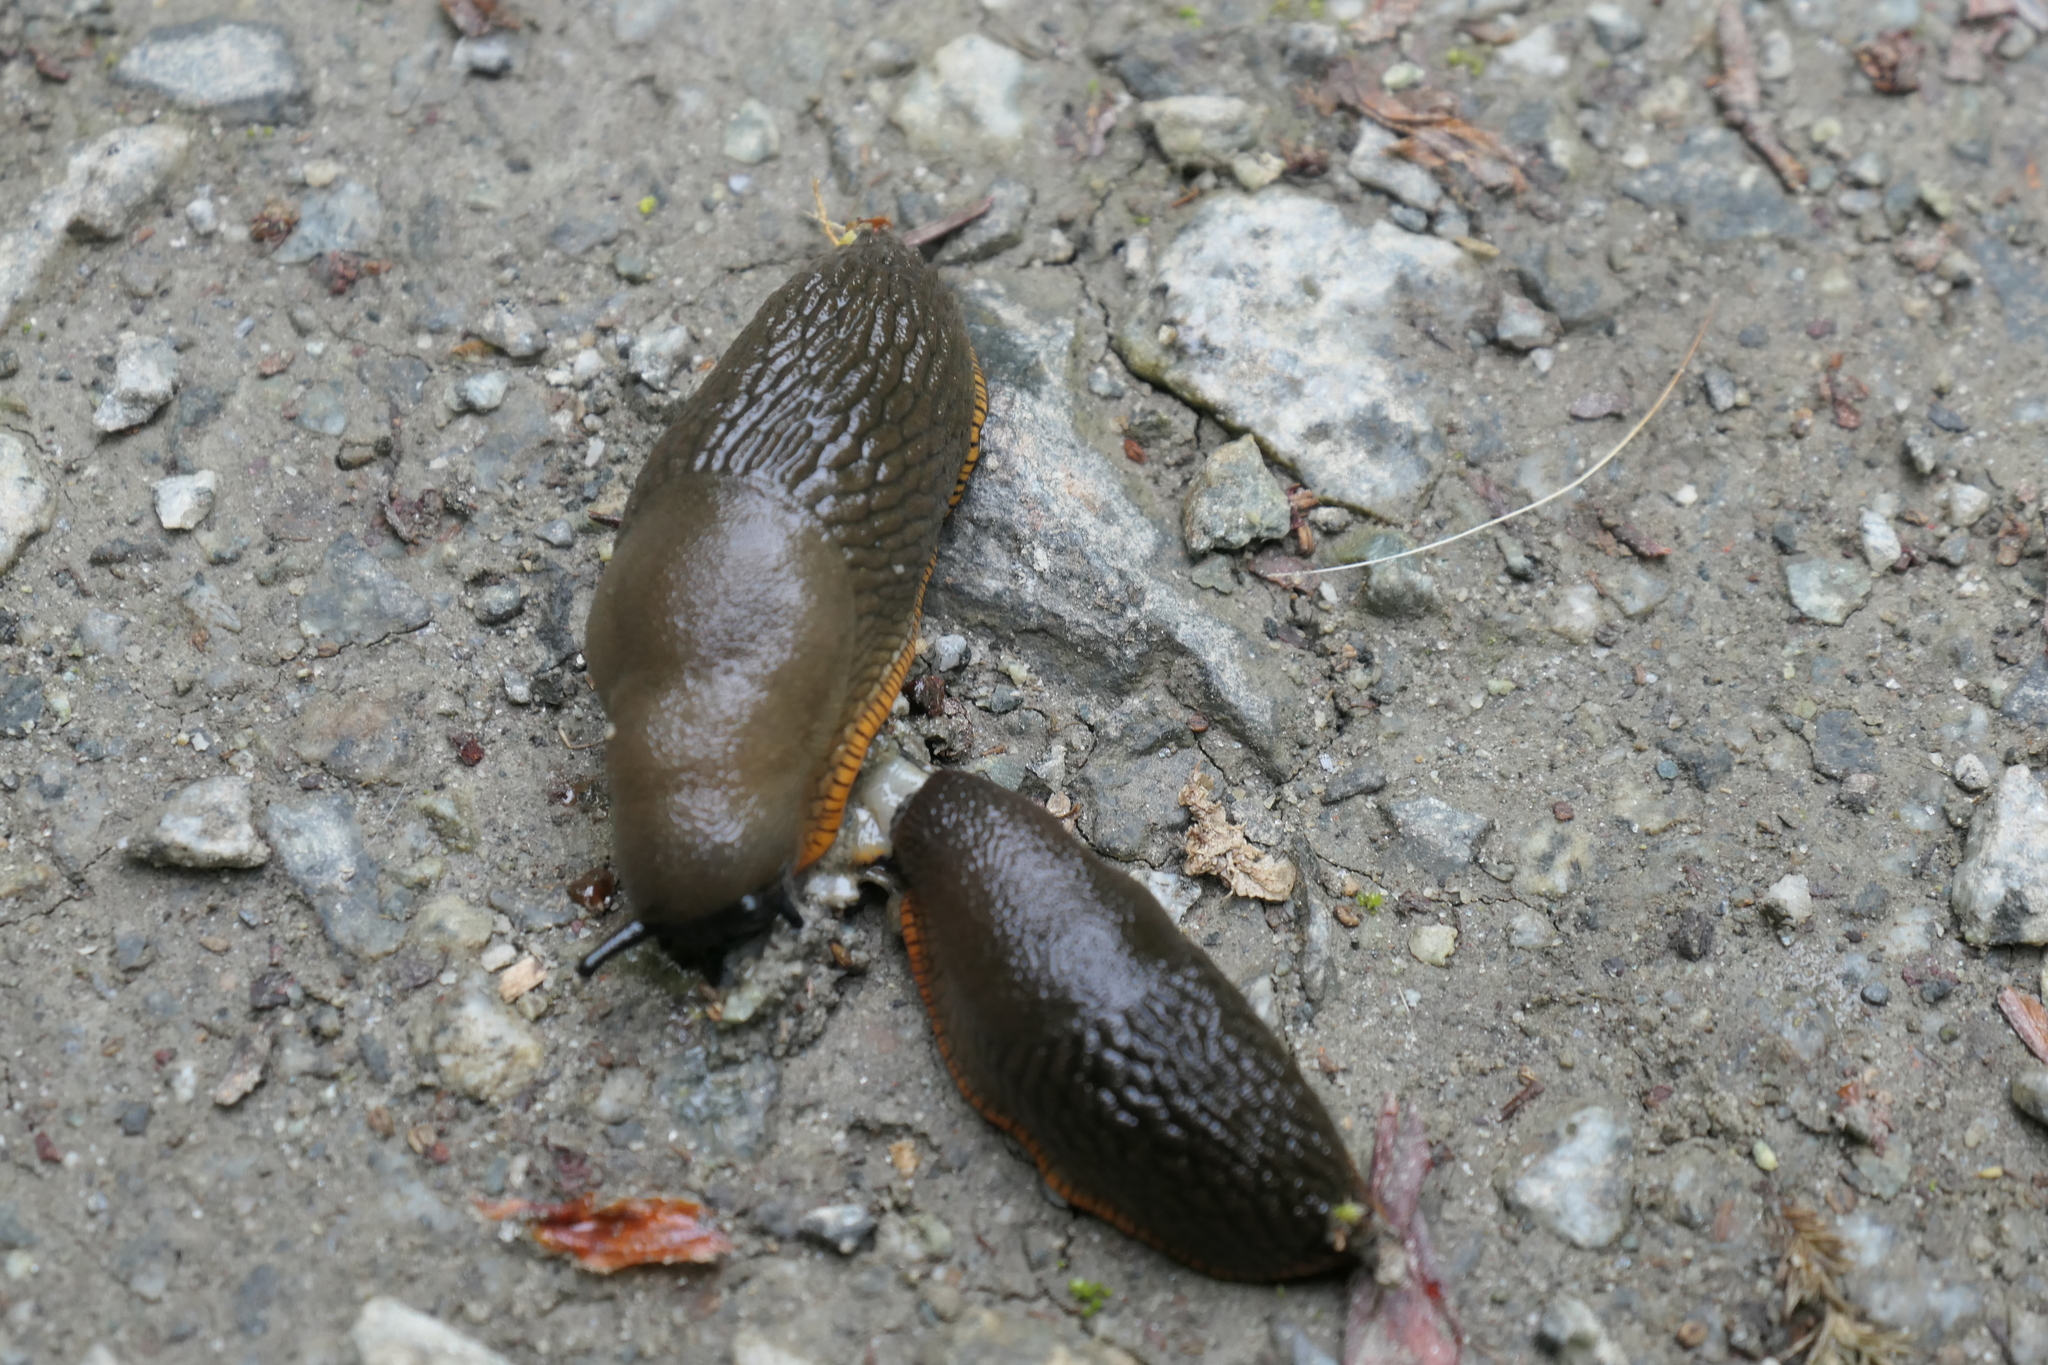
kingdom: Animalia
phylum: Mollusca
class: Gastropoda
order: Stylommatophora
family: Arionidae
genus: Arion
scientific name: Arion rufus
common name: Chocolate arion
